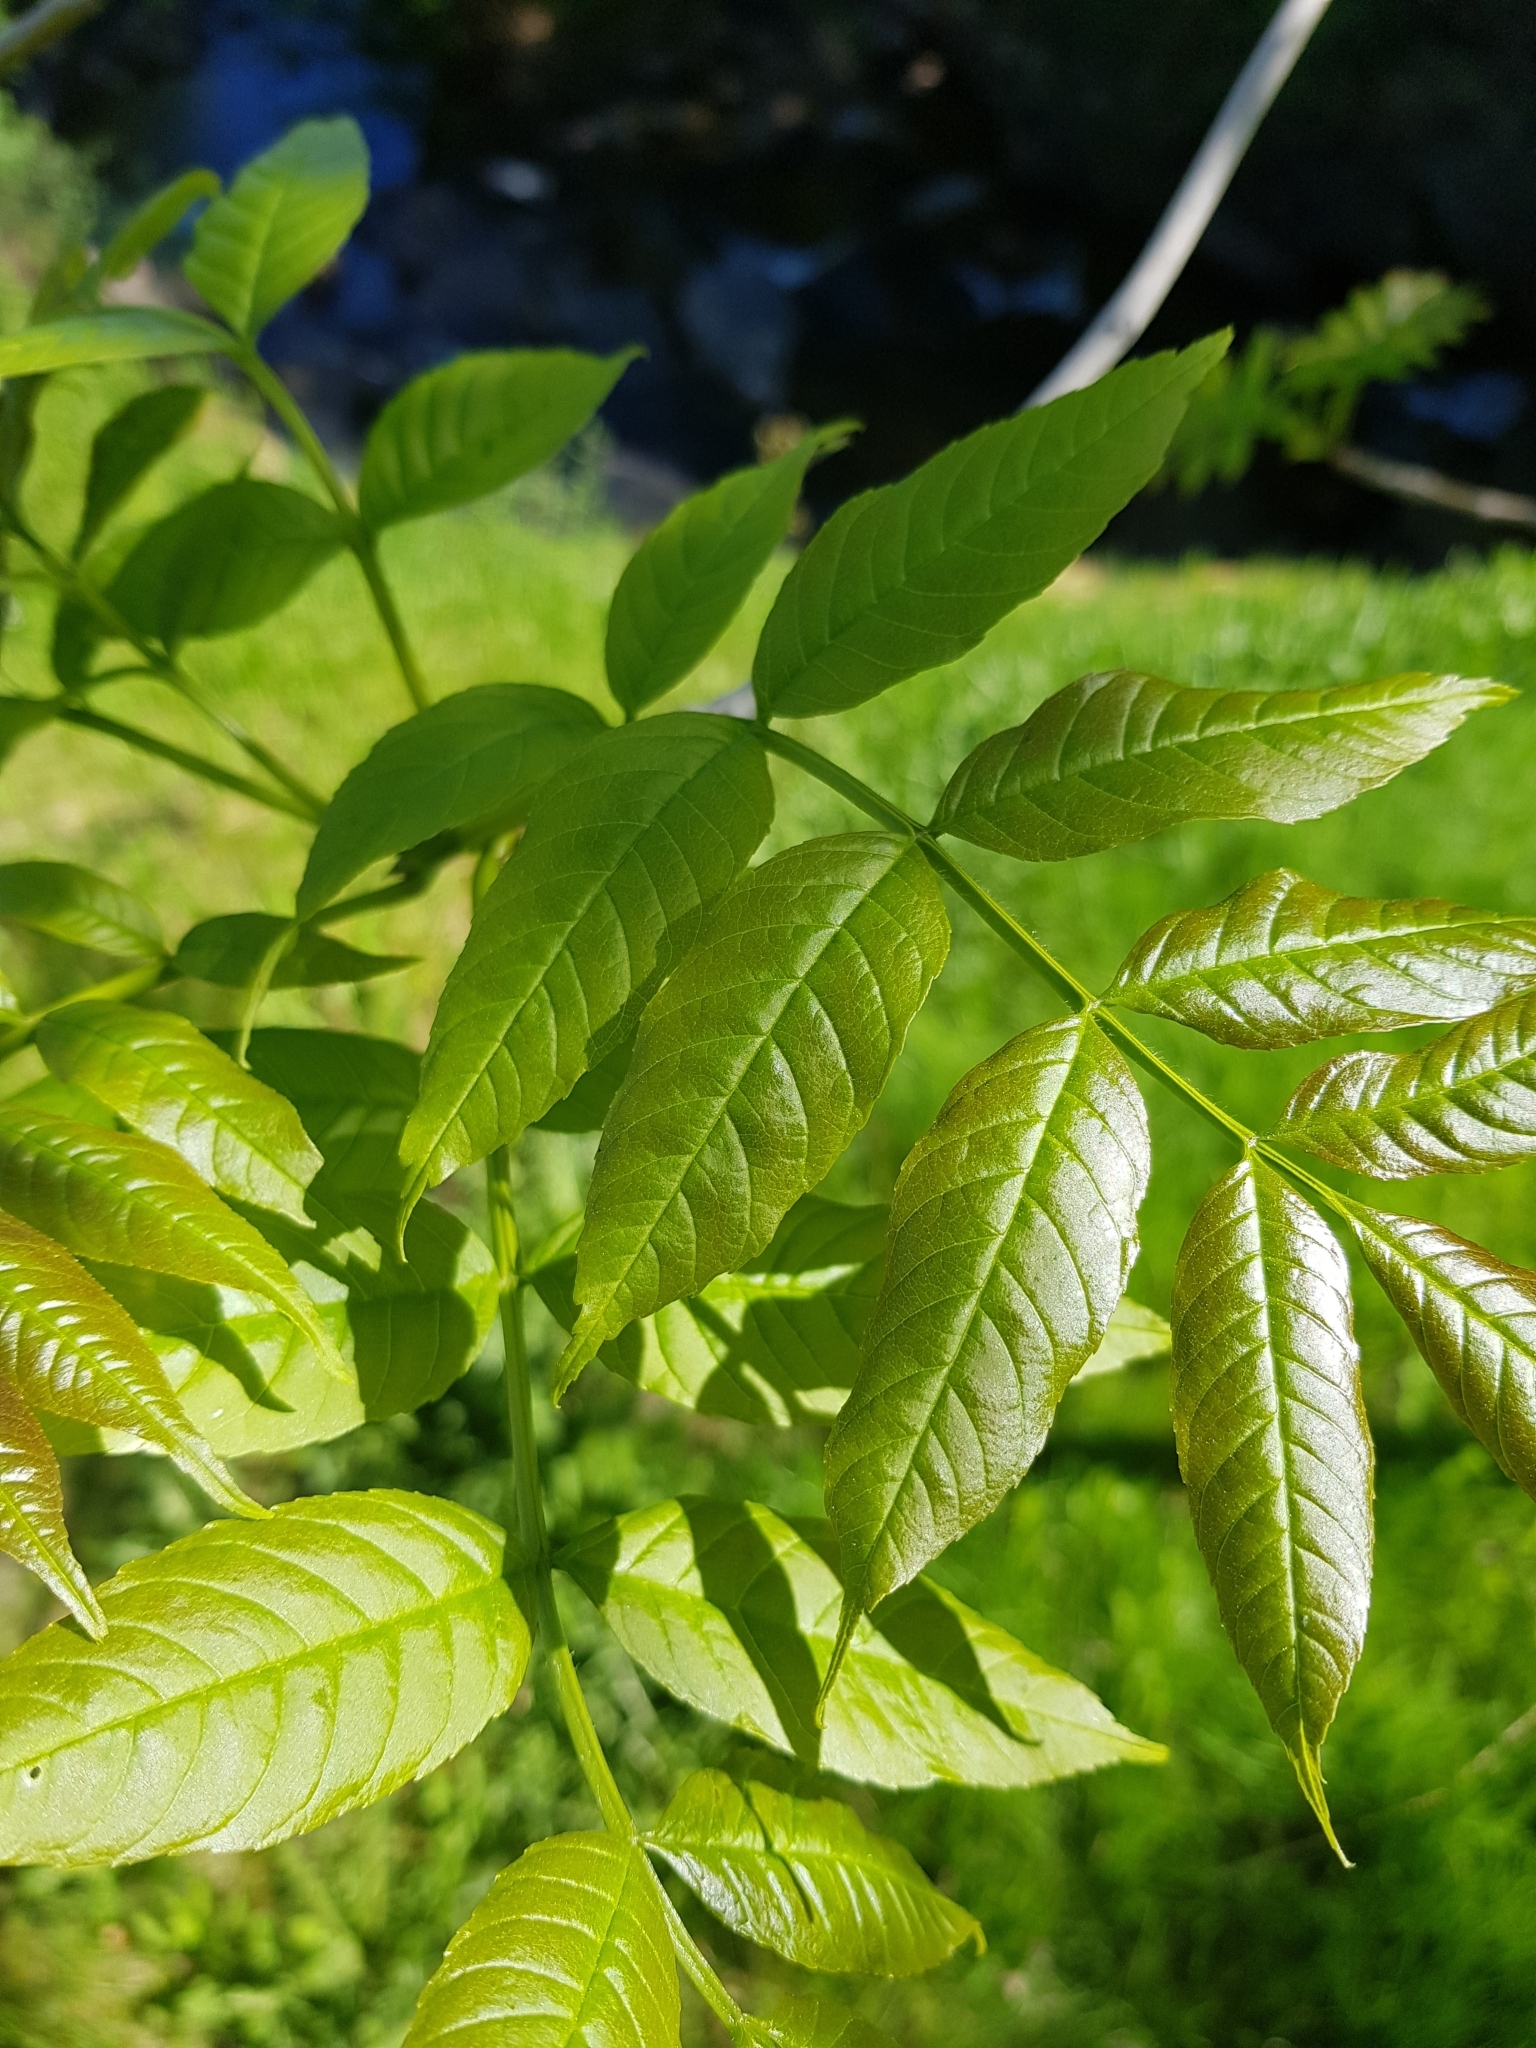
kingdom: Plantae
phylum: Tracheophyta
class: Magnoliopsida
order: Lamiales
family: Oleaceae
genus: Fraxinus
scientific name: Fraxinus excelsior
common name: European ash
